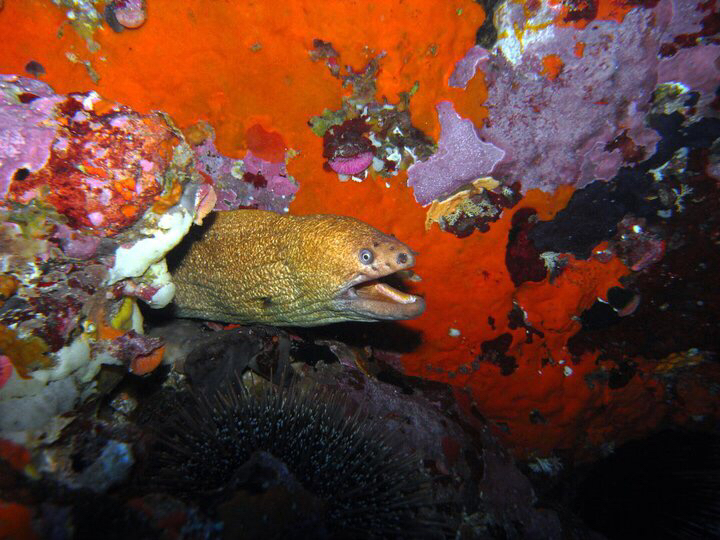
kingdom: Animalia
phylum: Chordata
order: Anguilliformes
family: Muraenidae
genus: Gymnothorax
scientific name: Gymnothorax prasinus
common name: Yellow moray
